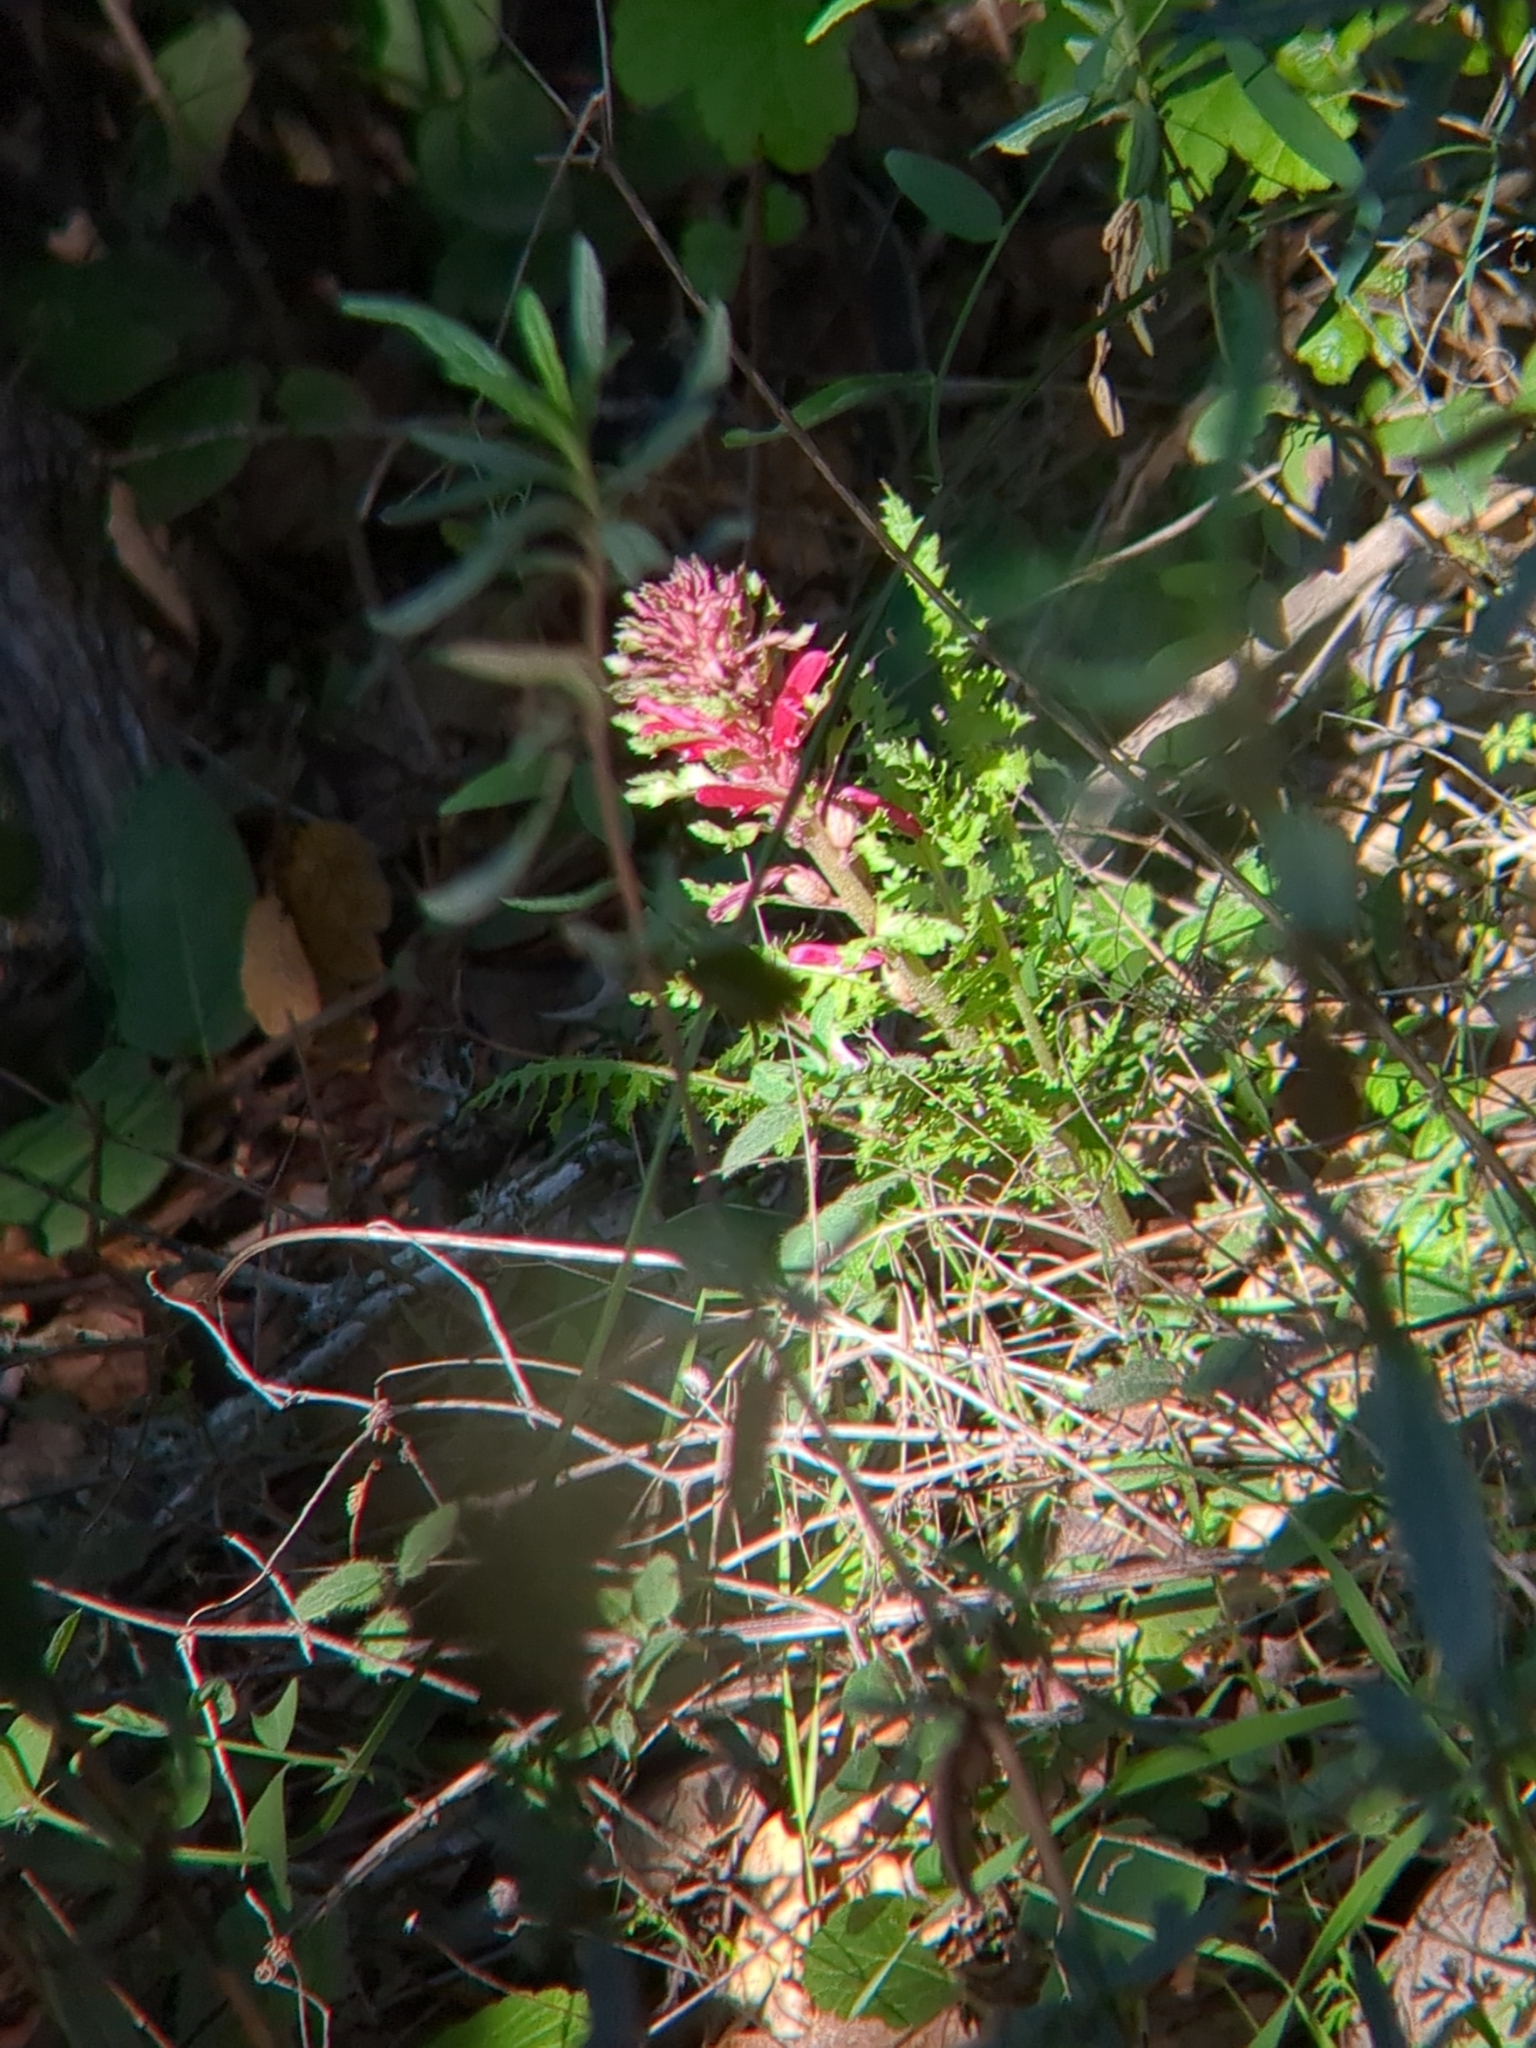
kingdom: Plantae
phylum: Tracheophyta
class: Magnoliopsida
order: Lamiales
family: Orobanchaceae
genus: Pedicularis
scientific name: Pedicularis densiflora
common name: Indian warrior
